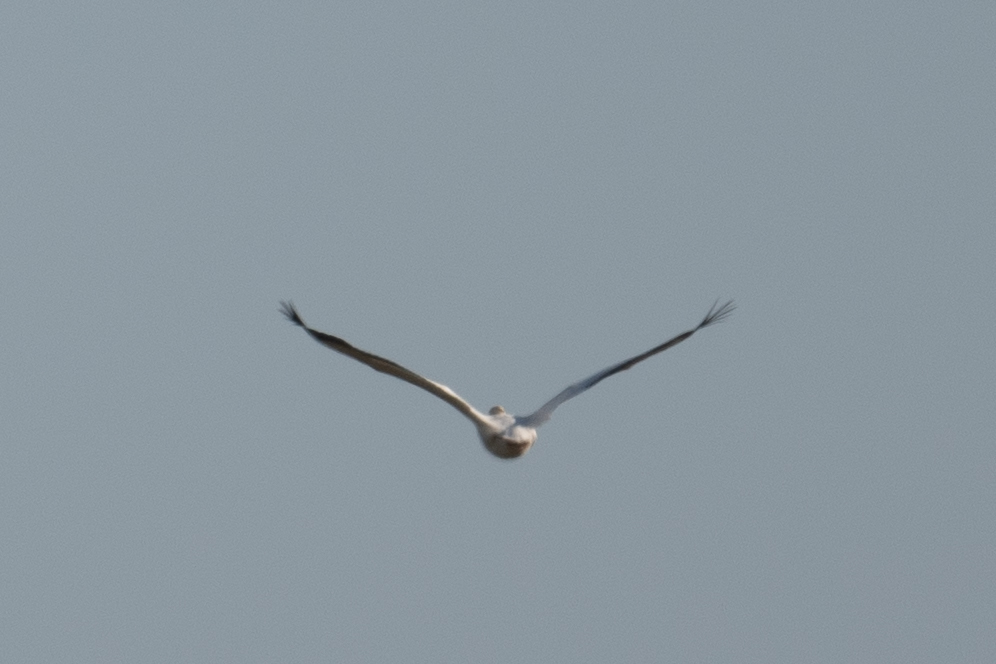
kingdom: Animalia
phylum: Chordata
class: Aves
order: Pelecaniformes
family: Pelecanidae
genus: Pelecanus
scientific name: Pelecanus erythrorhynchos
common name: American white pelican
